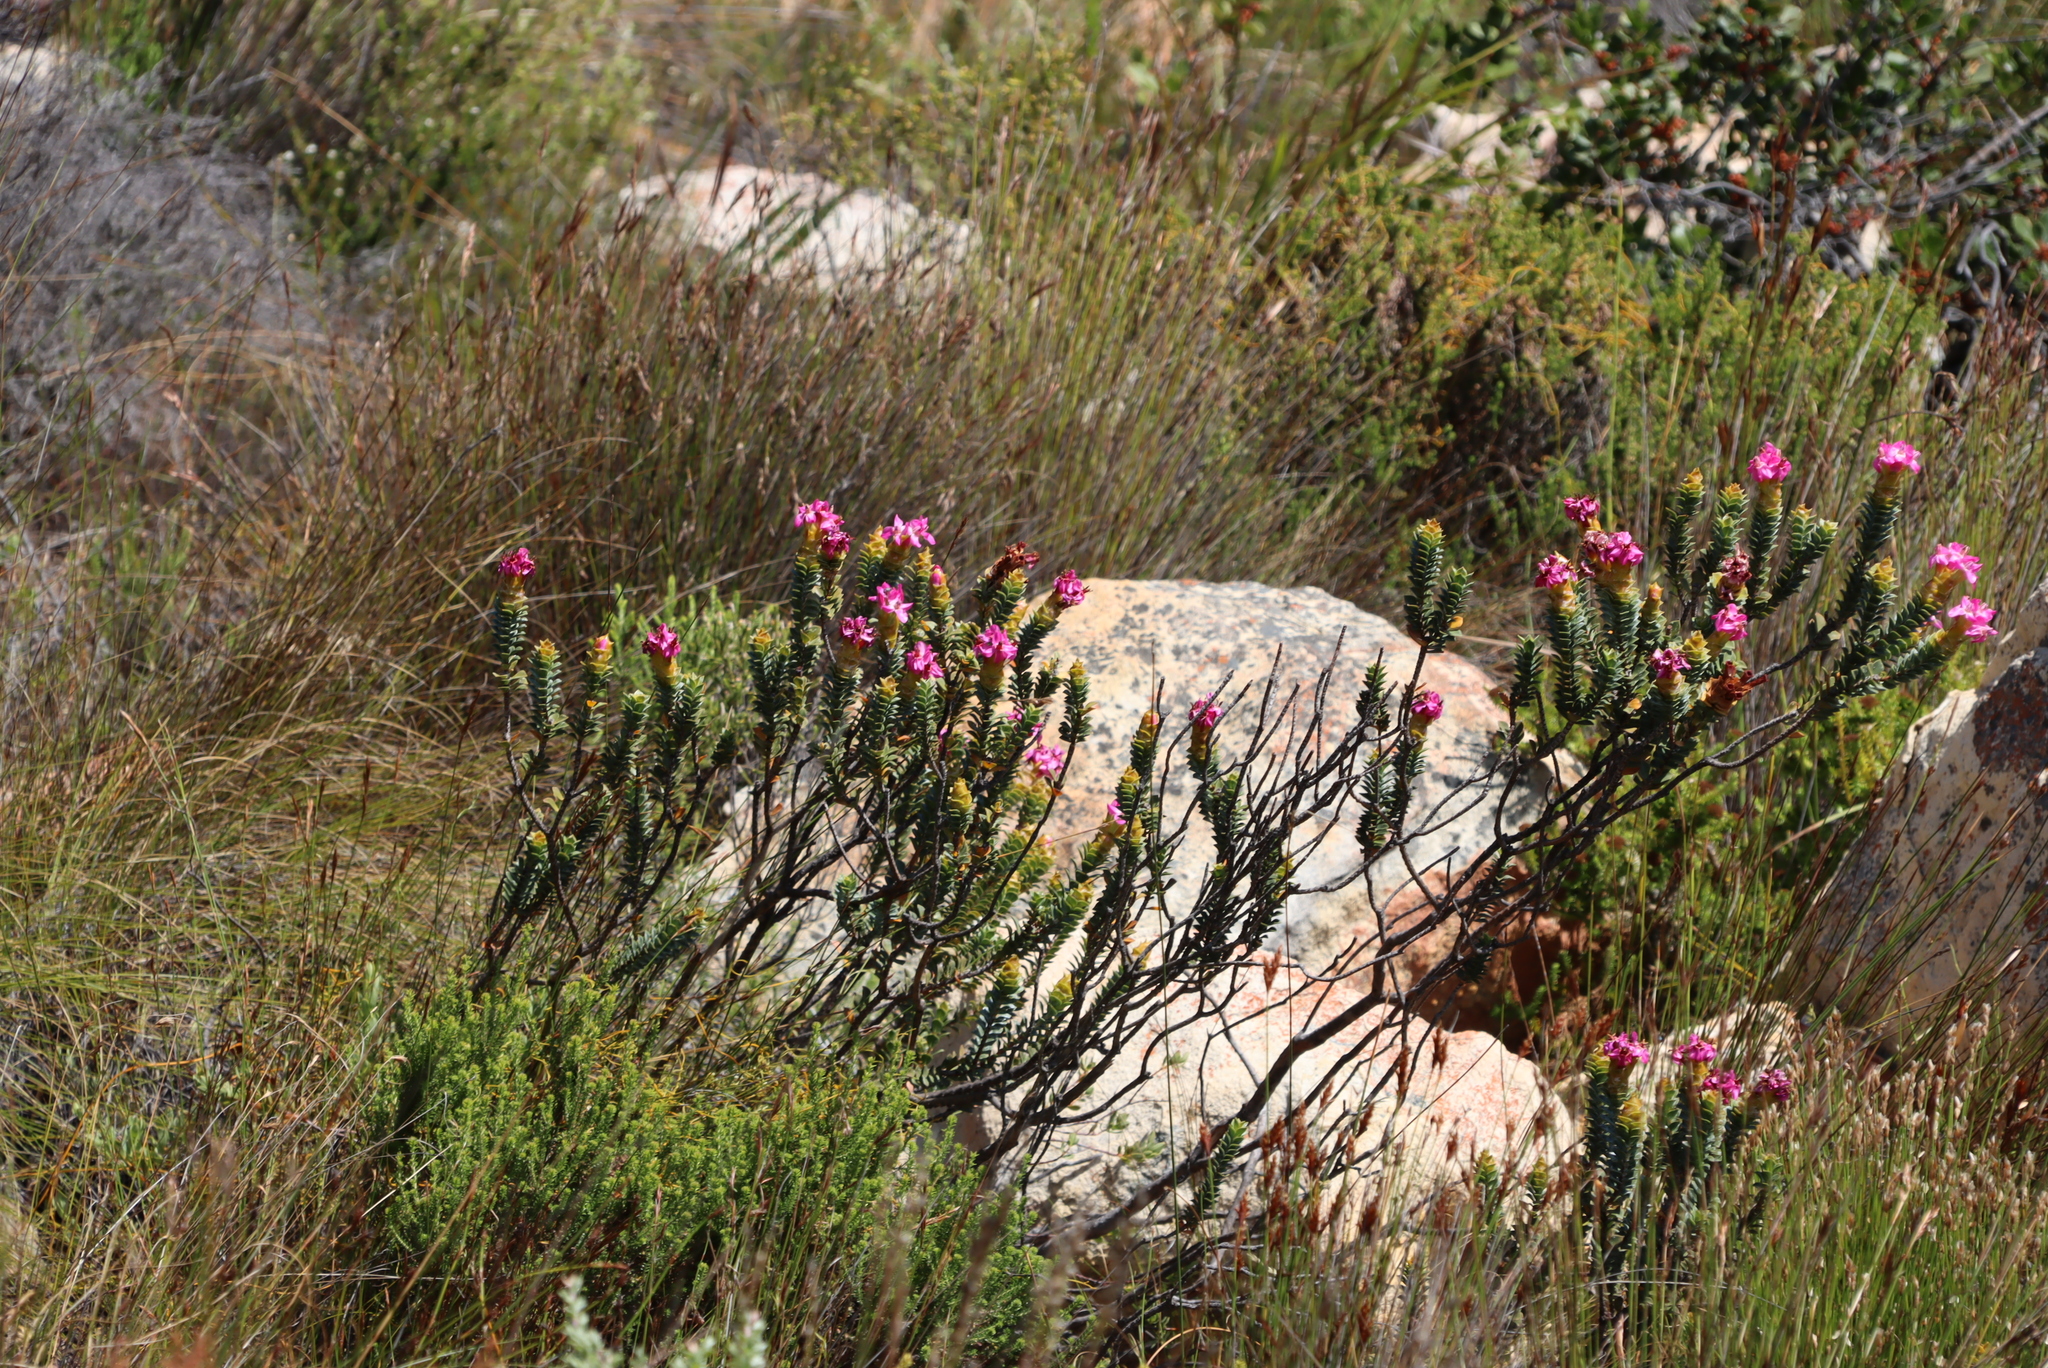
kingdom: Plantae
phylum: Tracheophyta
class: Magnoliopsida
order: Myrtales
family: Penaeaceae
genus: Saltera
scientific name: Saltera sarcocolla
